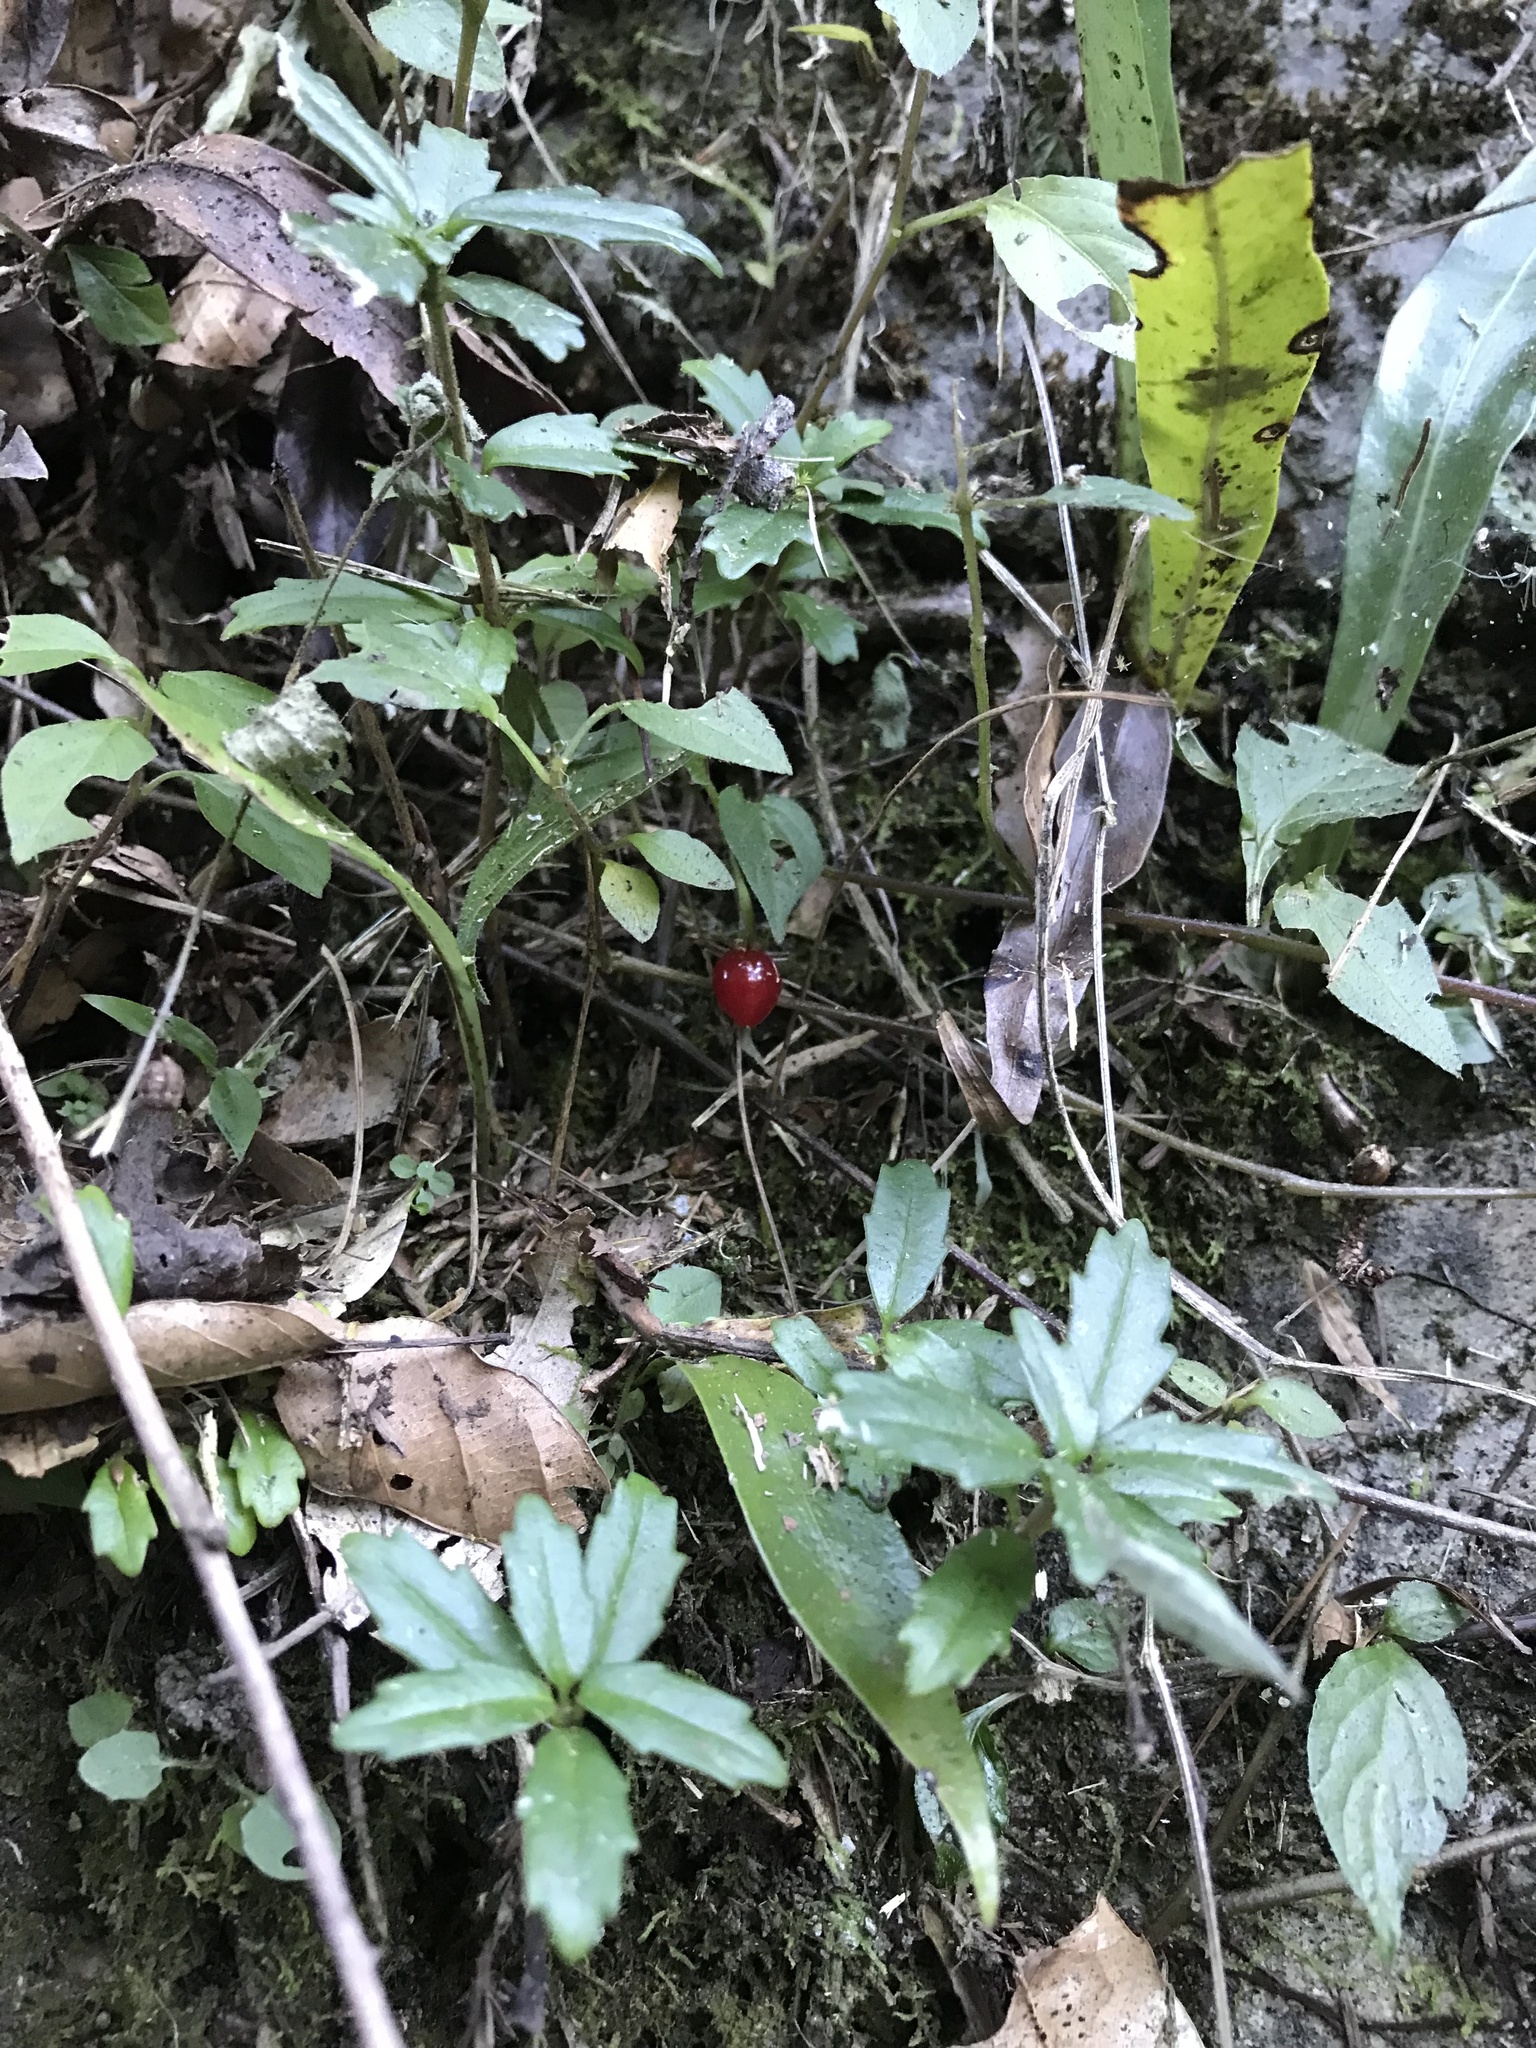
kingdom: Plantae
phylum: Tracheophyta
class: Magnoliopsida
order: Solanales
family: Solanaceae
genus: Lycianthes
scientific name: Lycianthes biflora
